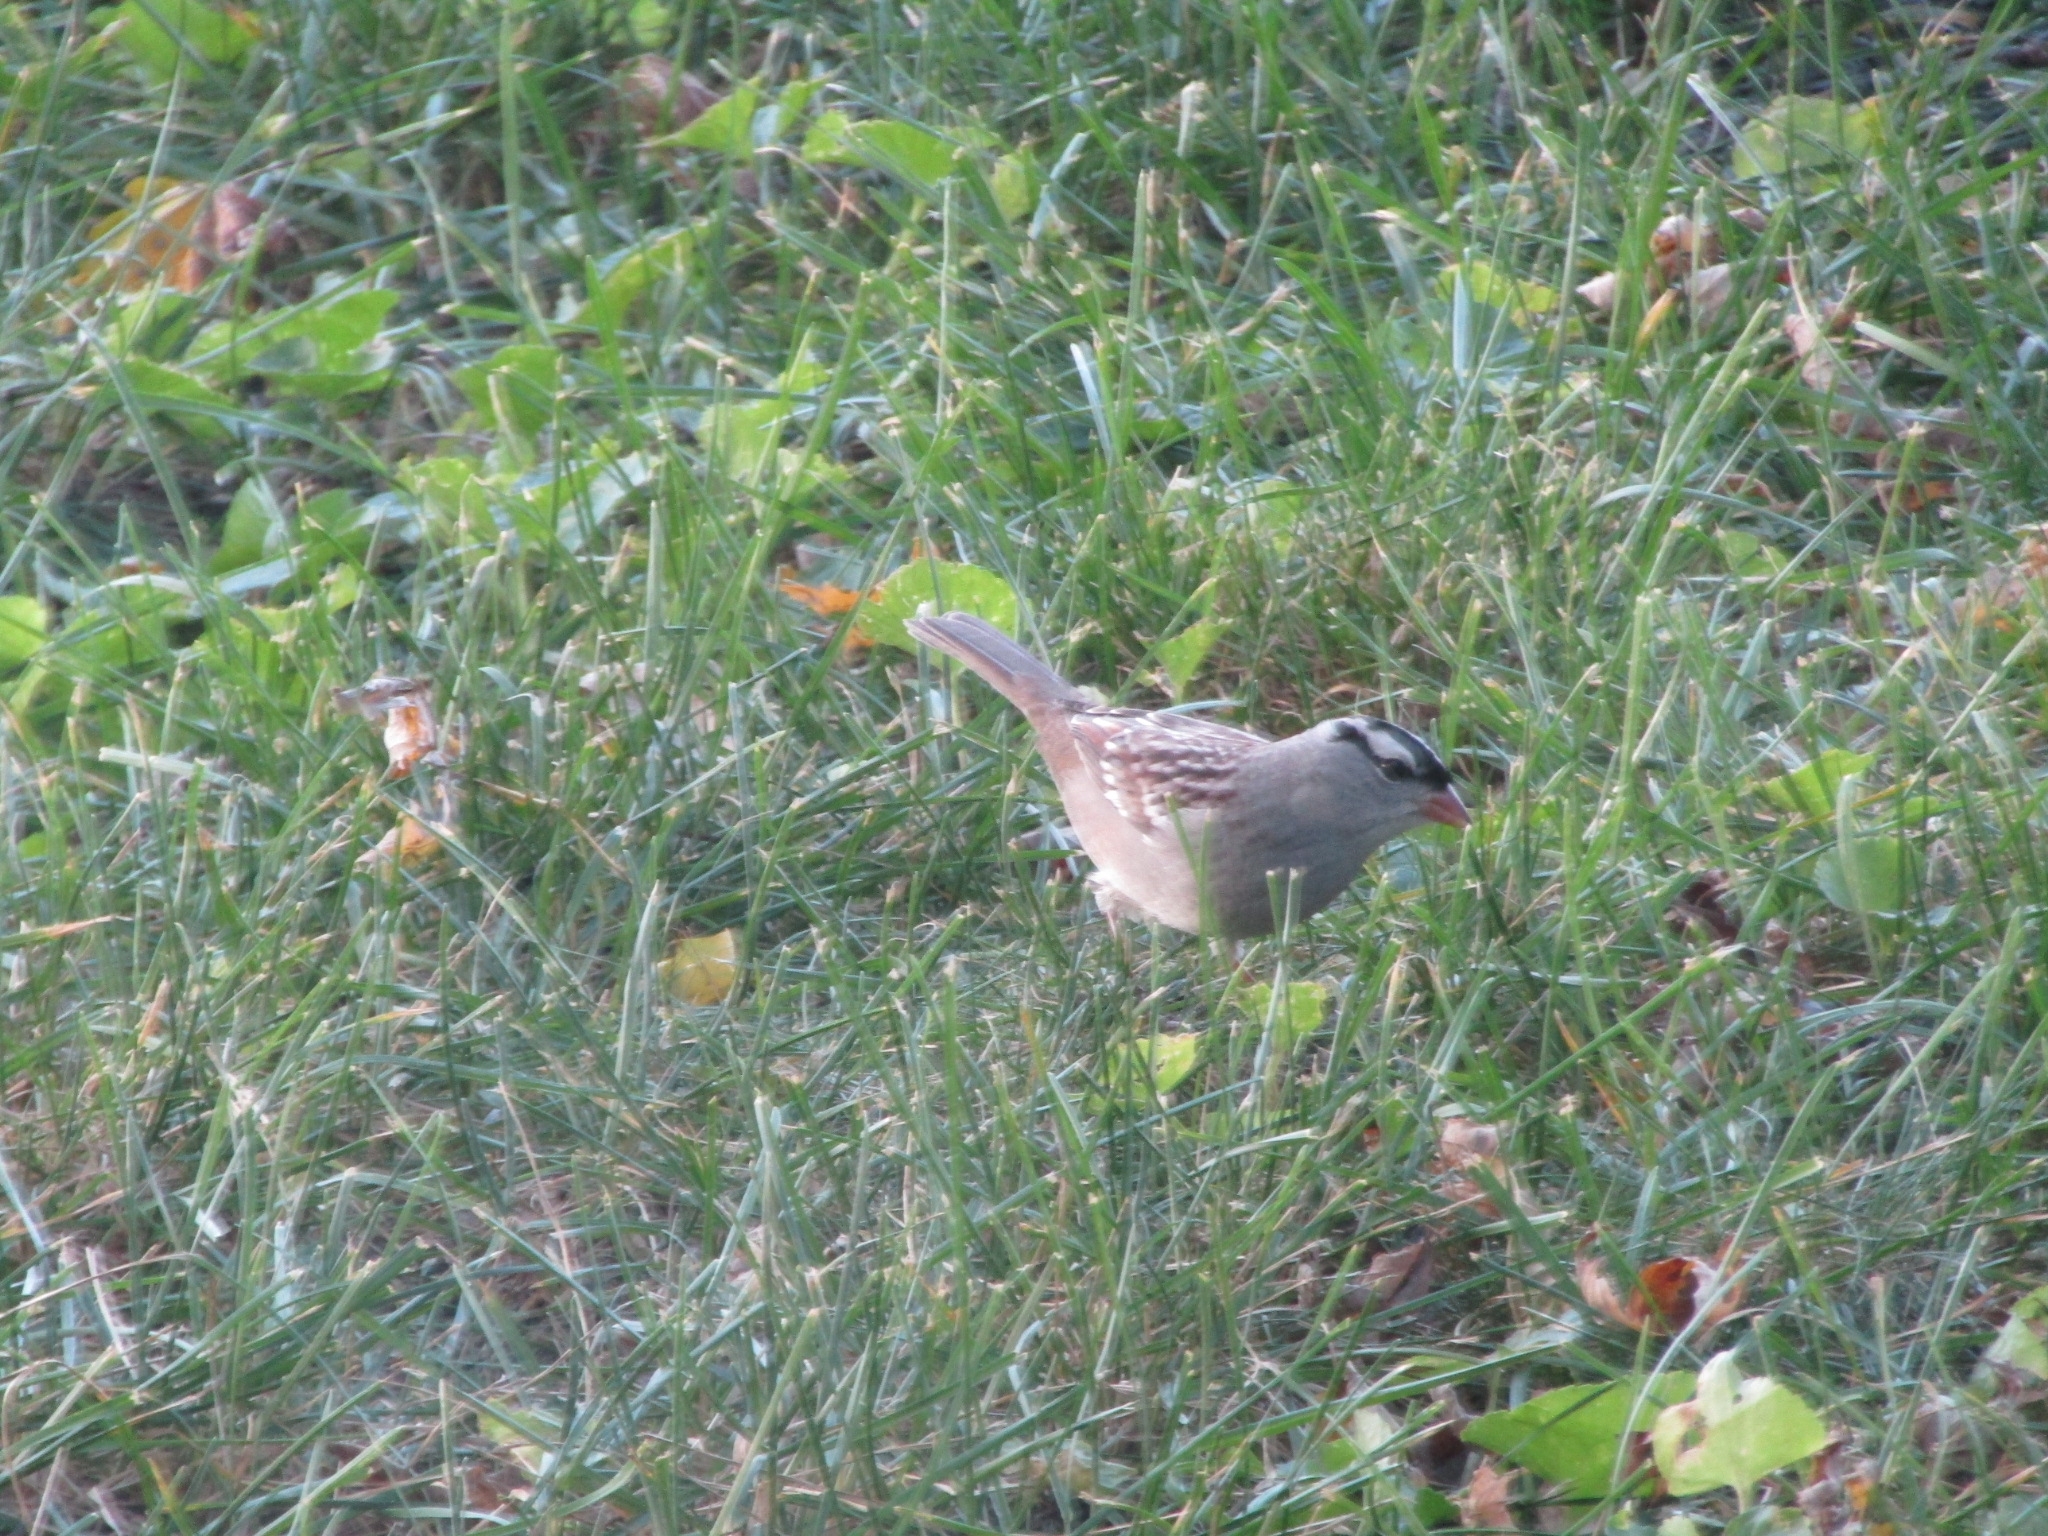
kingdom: Animalia
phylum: Chordata
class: Aves
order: Passeriformes
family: Passerellidae
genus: Zonotrichia
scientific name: Zonotrichia leucophrys
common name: White-crowned sparrow
